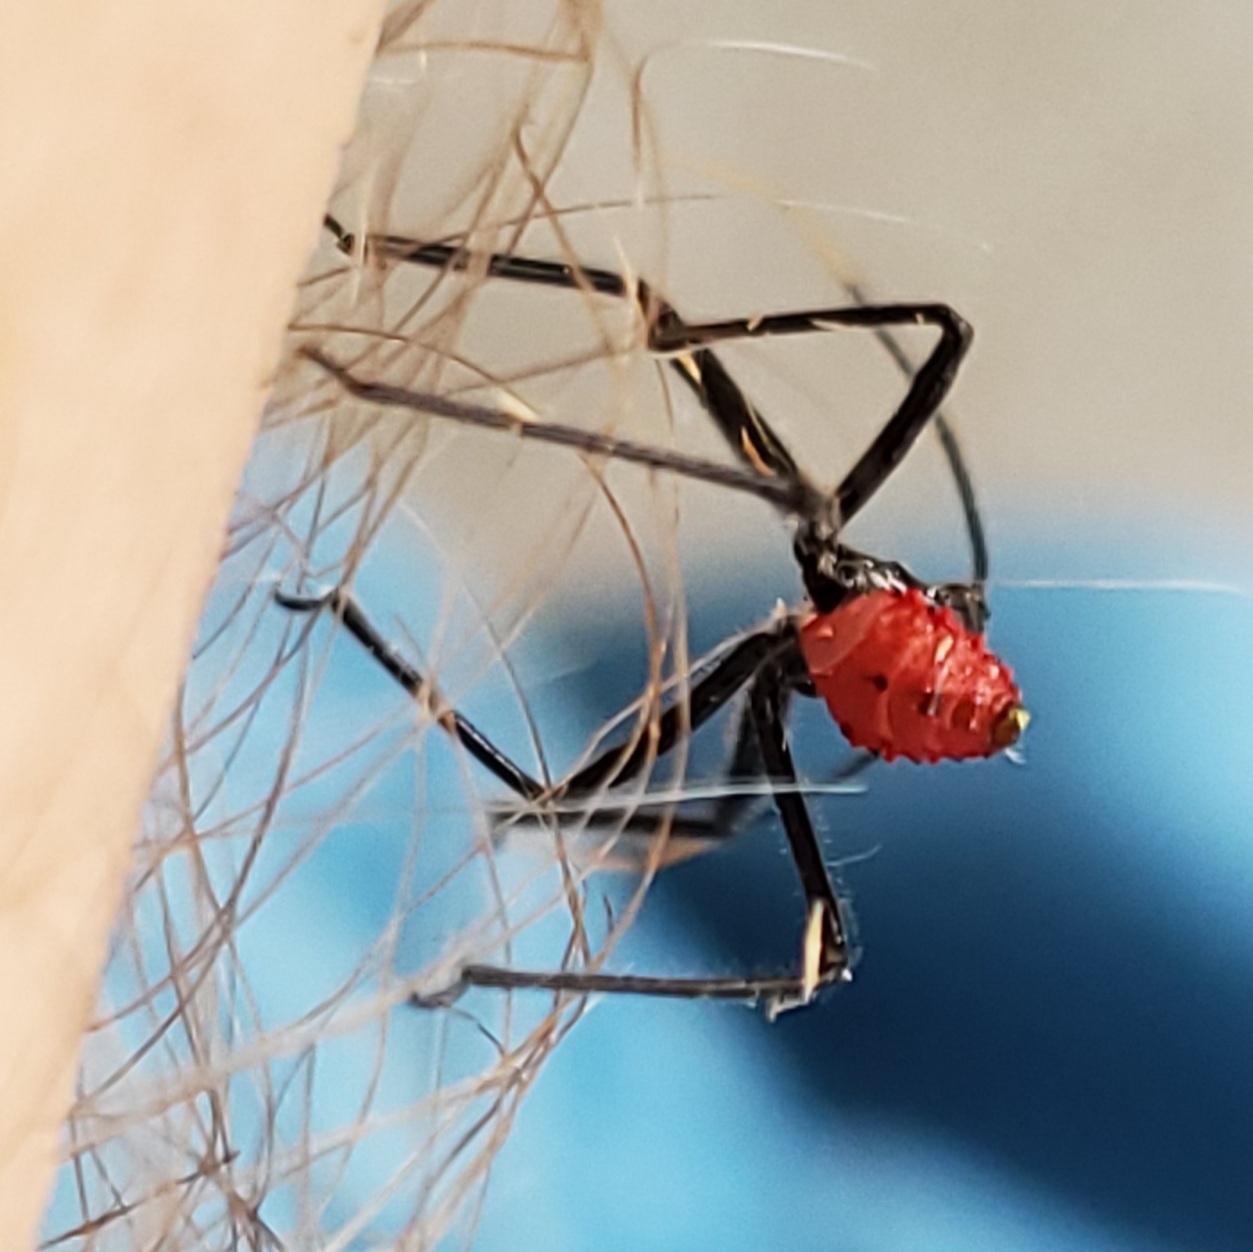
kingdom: Animalia
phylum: Arthropoda
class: Insecta
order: Hemiptera
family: Reduviidae
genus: Arilus
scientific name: Arilus cristatus
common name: North american wheel bug
